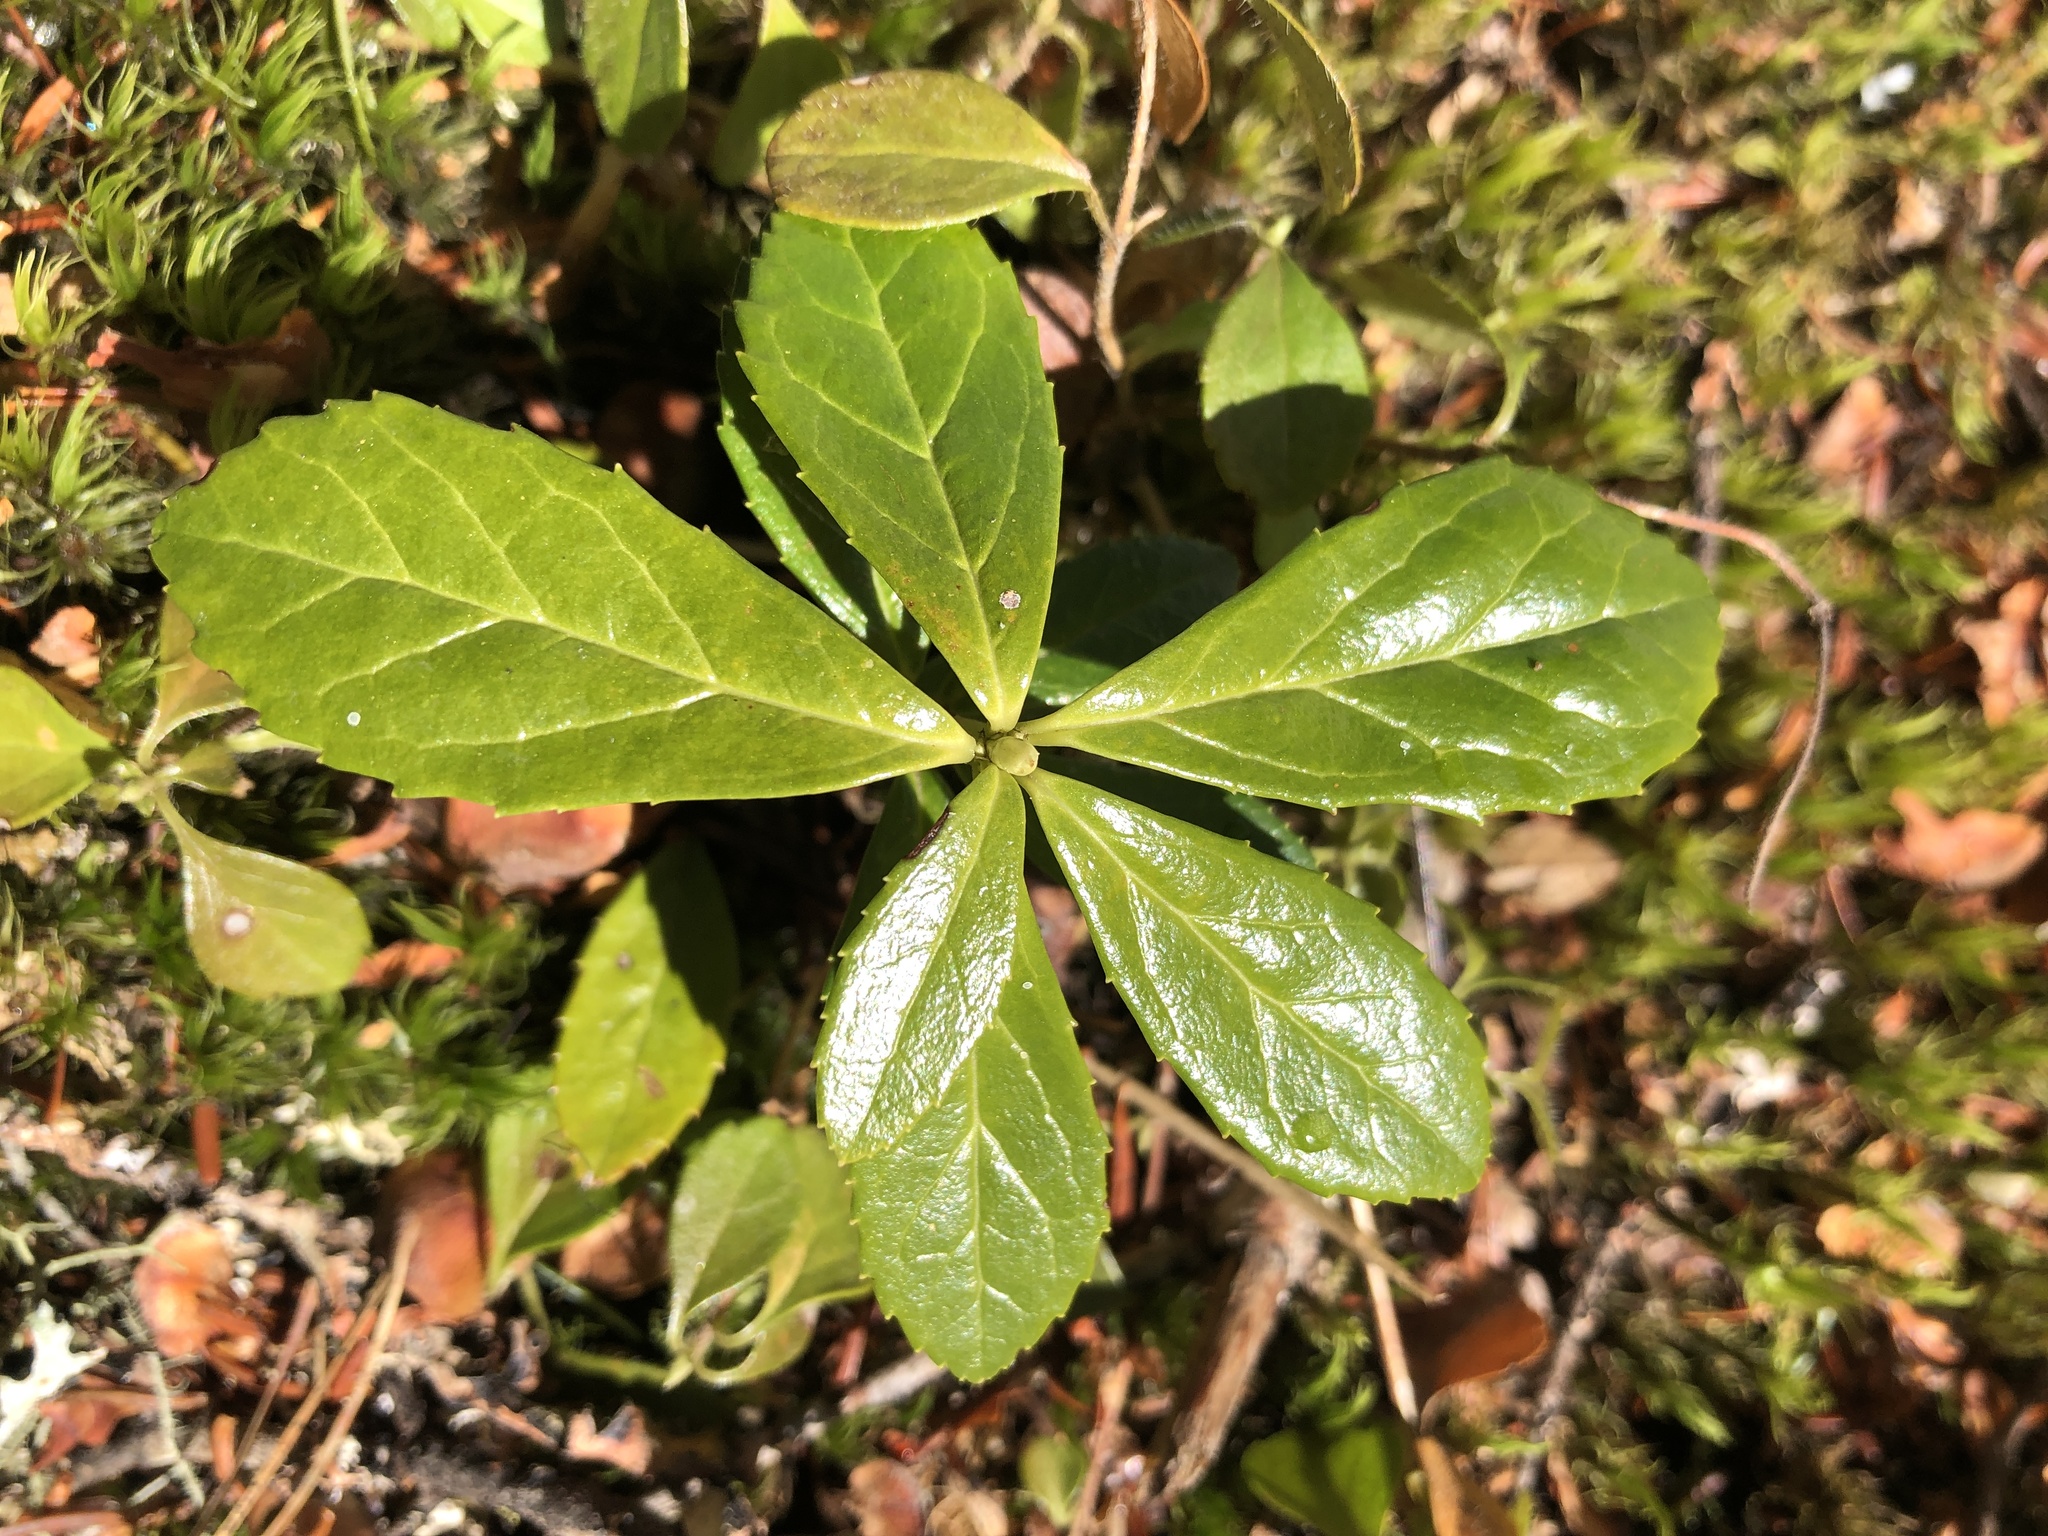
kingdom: Plantae
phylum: Tracheophyta
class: Magnoliopsida
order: Ericales
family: Ericaceae
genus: Chimaphila
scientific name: Chimaphila umbellata
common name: Pipsissewa
